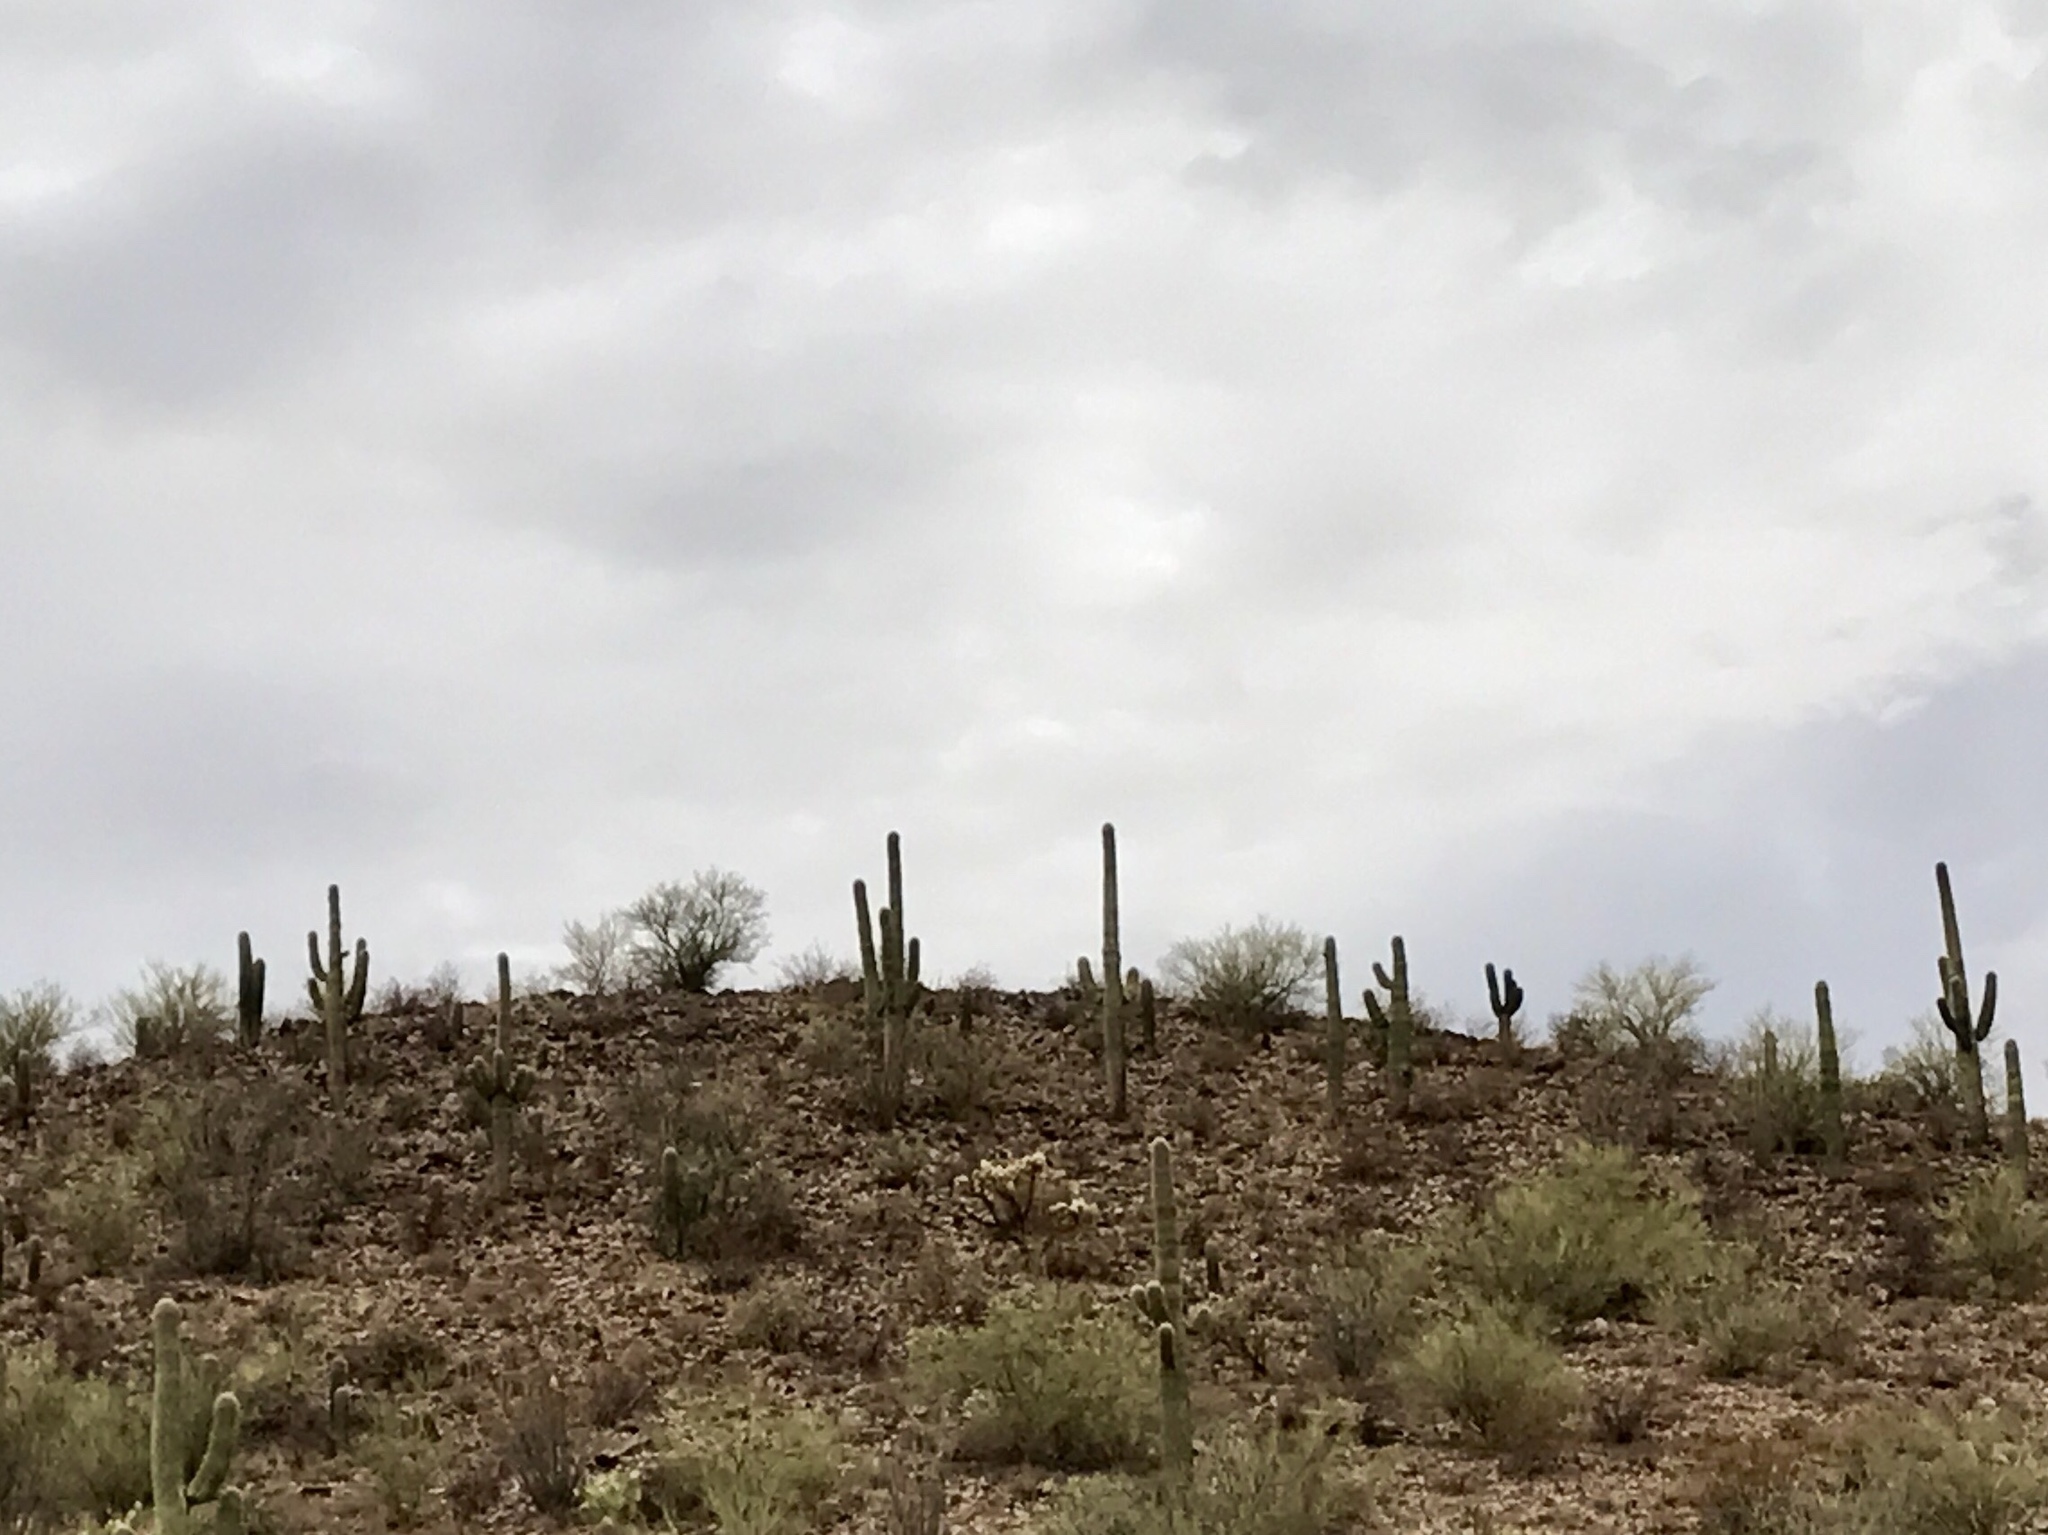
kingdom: Plantae
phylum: Tracheophyta
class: Magnoliopsida
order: Caryophyllales
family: Cactaceae
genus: Carnegiea
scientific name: Carnegiea gigantea
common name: Saguaro
